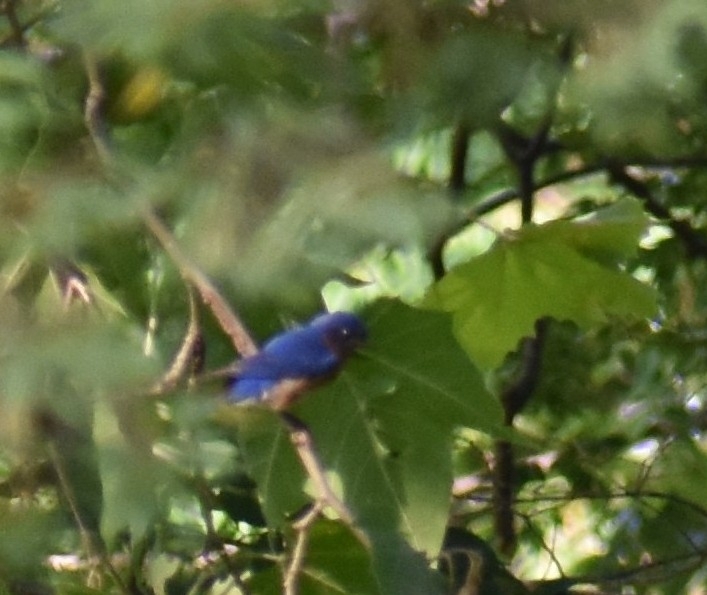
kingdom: Animalia
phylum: Chordata
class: Aves
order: Passeriformes
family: Turdidae
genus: Sialia
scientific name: Sialia sialis
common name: Eastern bluebird
